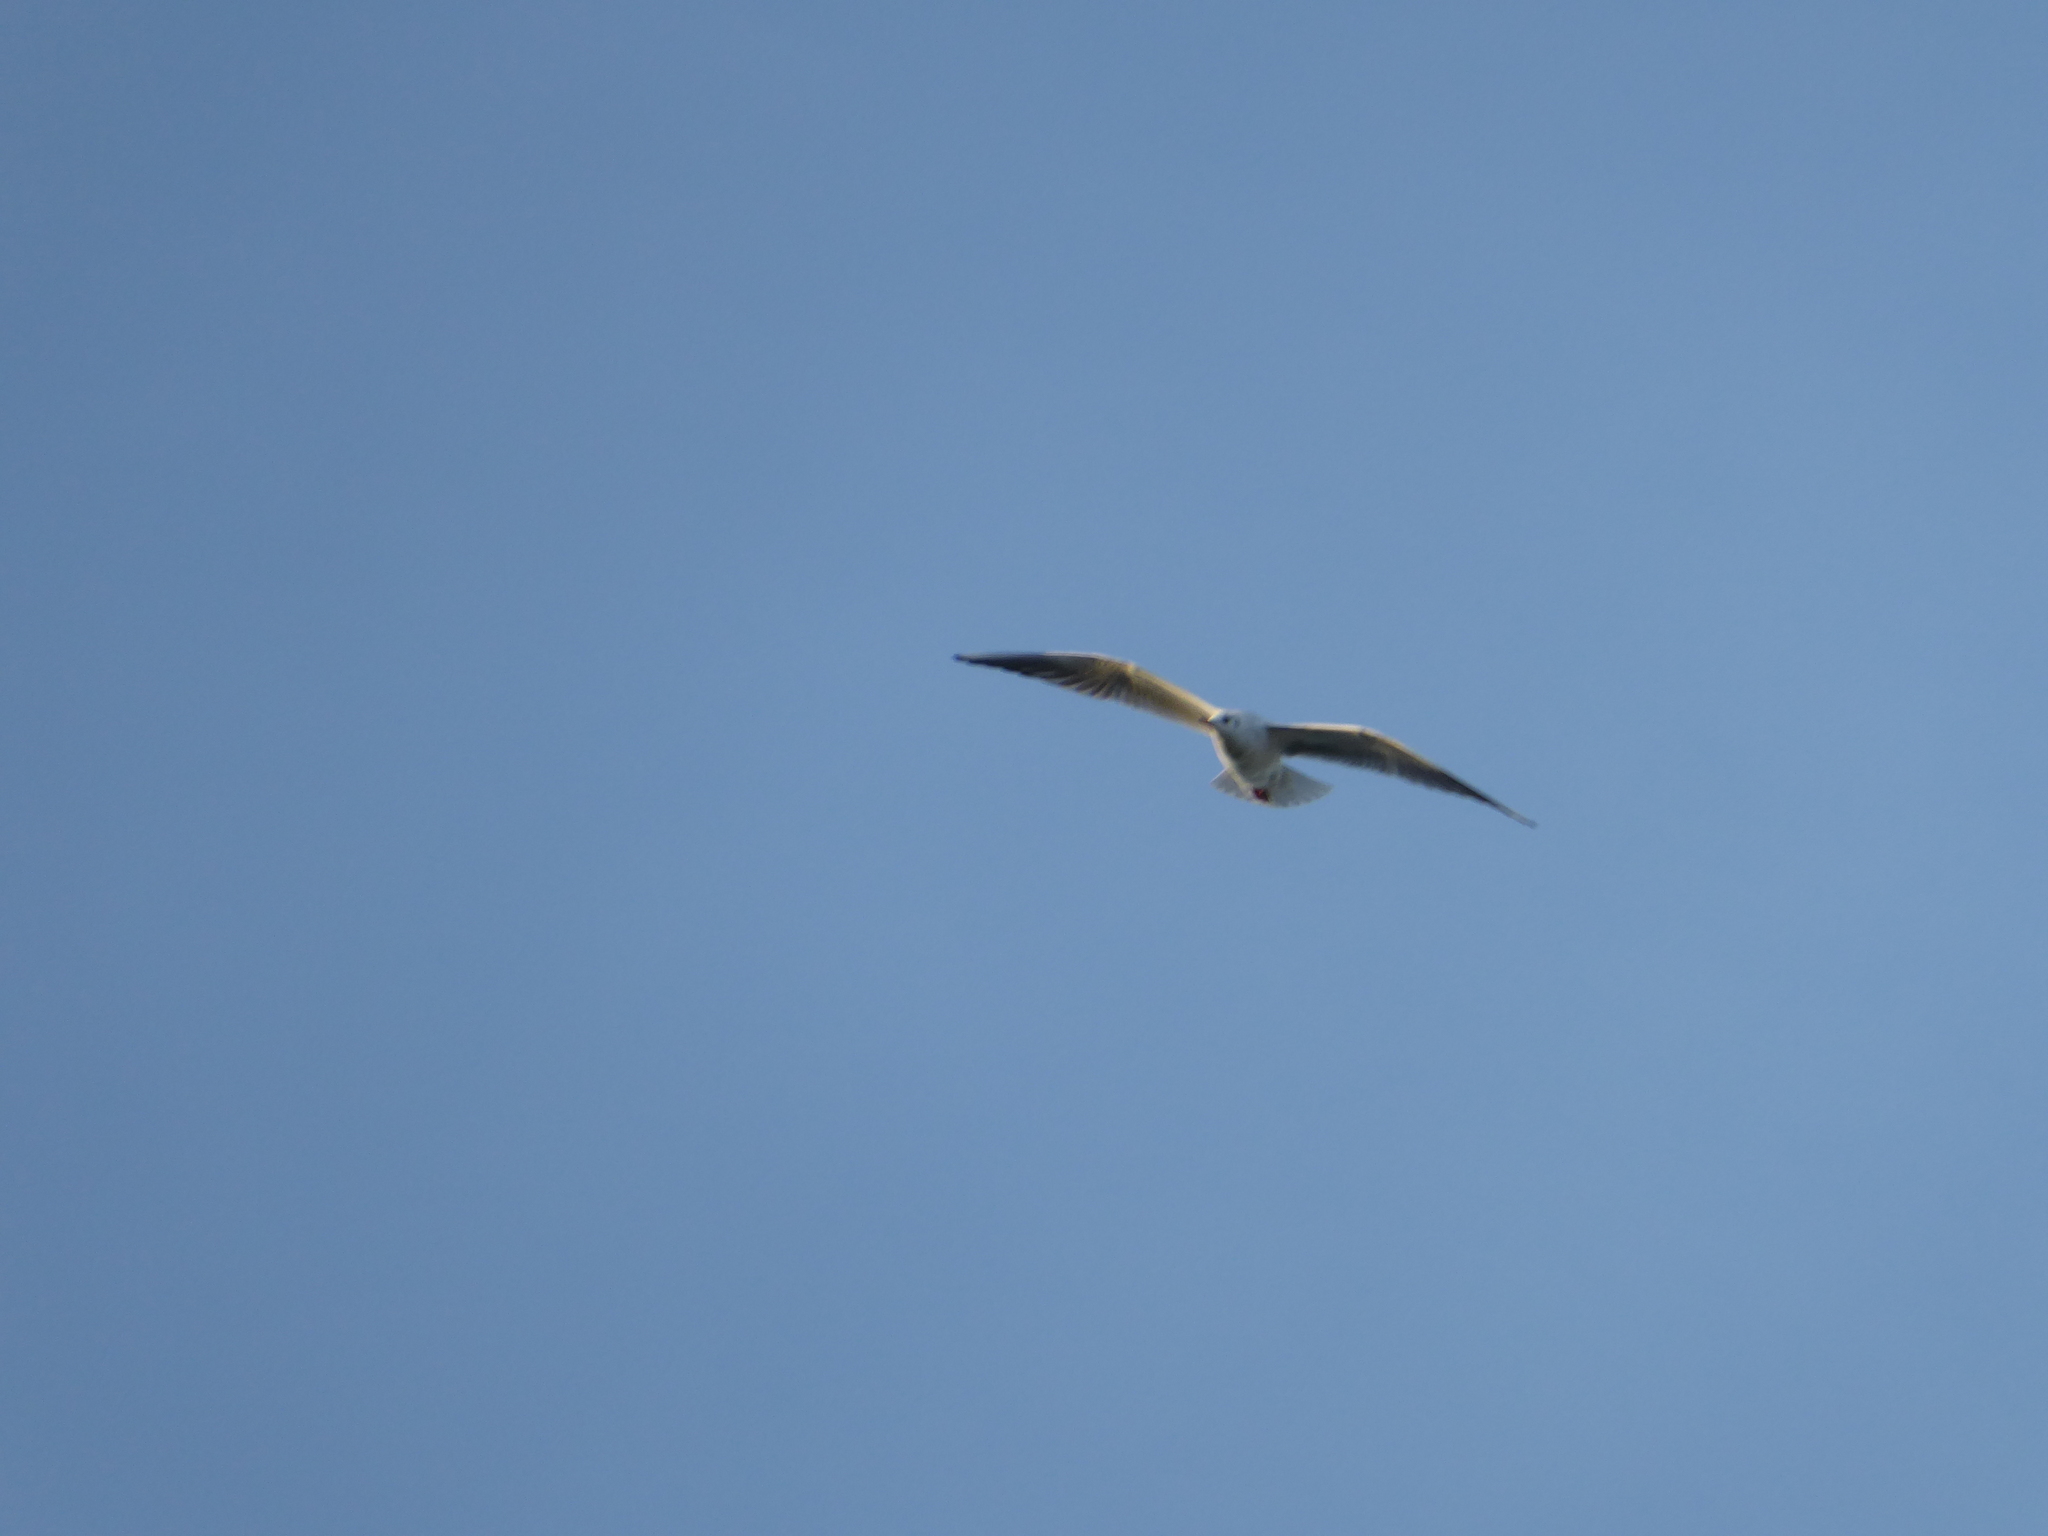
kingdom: Animalia
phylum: Chordata
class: Aves
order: Charadriiformes
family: Laridae
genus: Chroicocephalus
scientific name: Chroicocephalus ridibundus
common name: Black-headed gull
